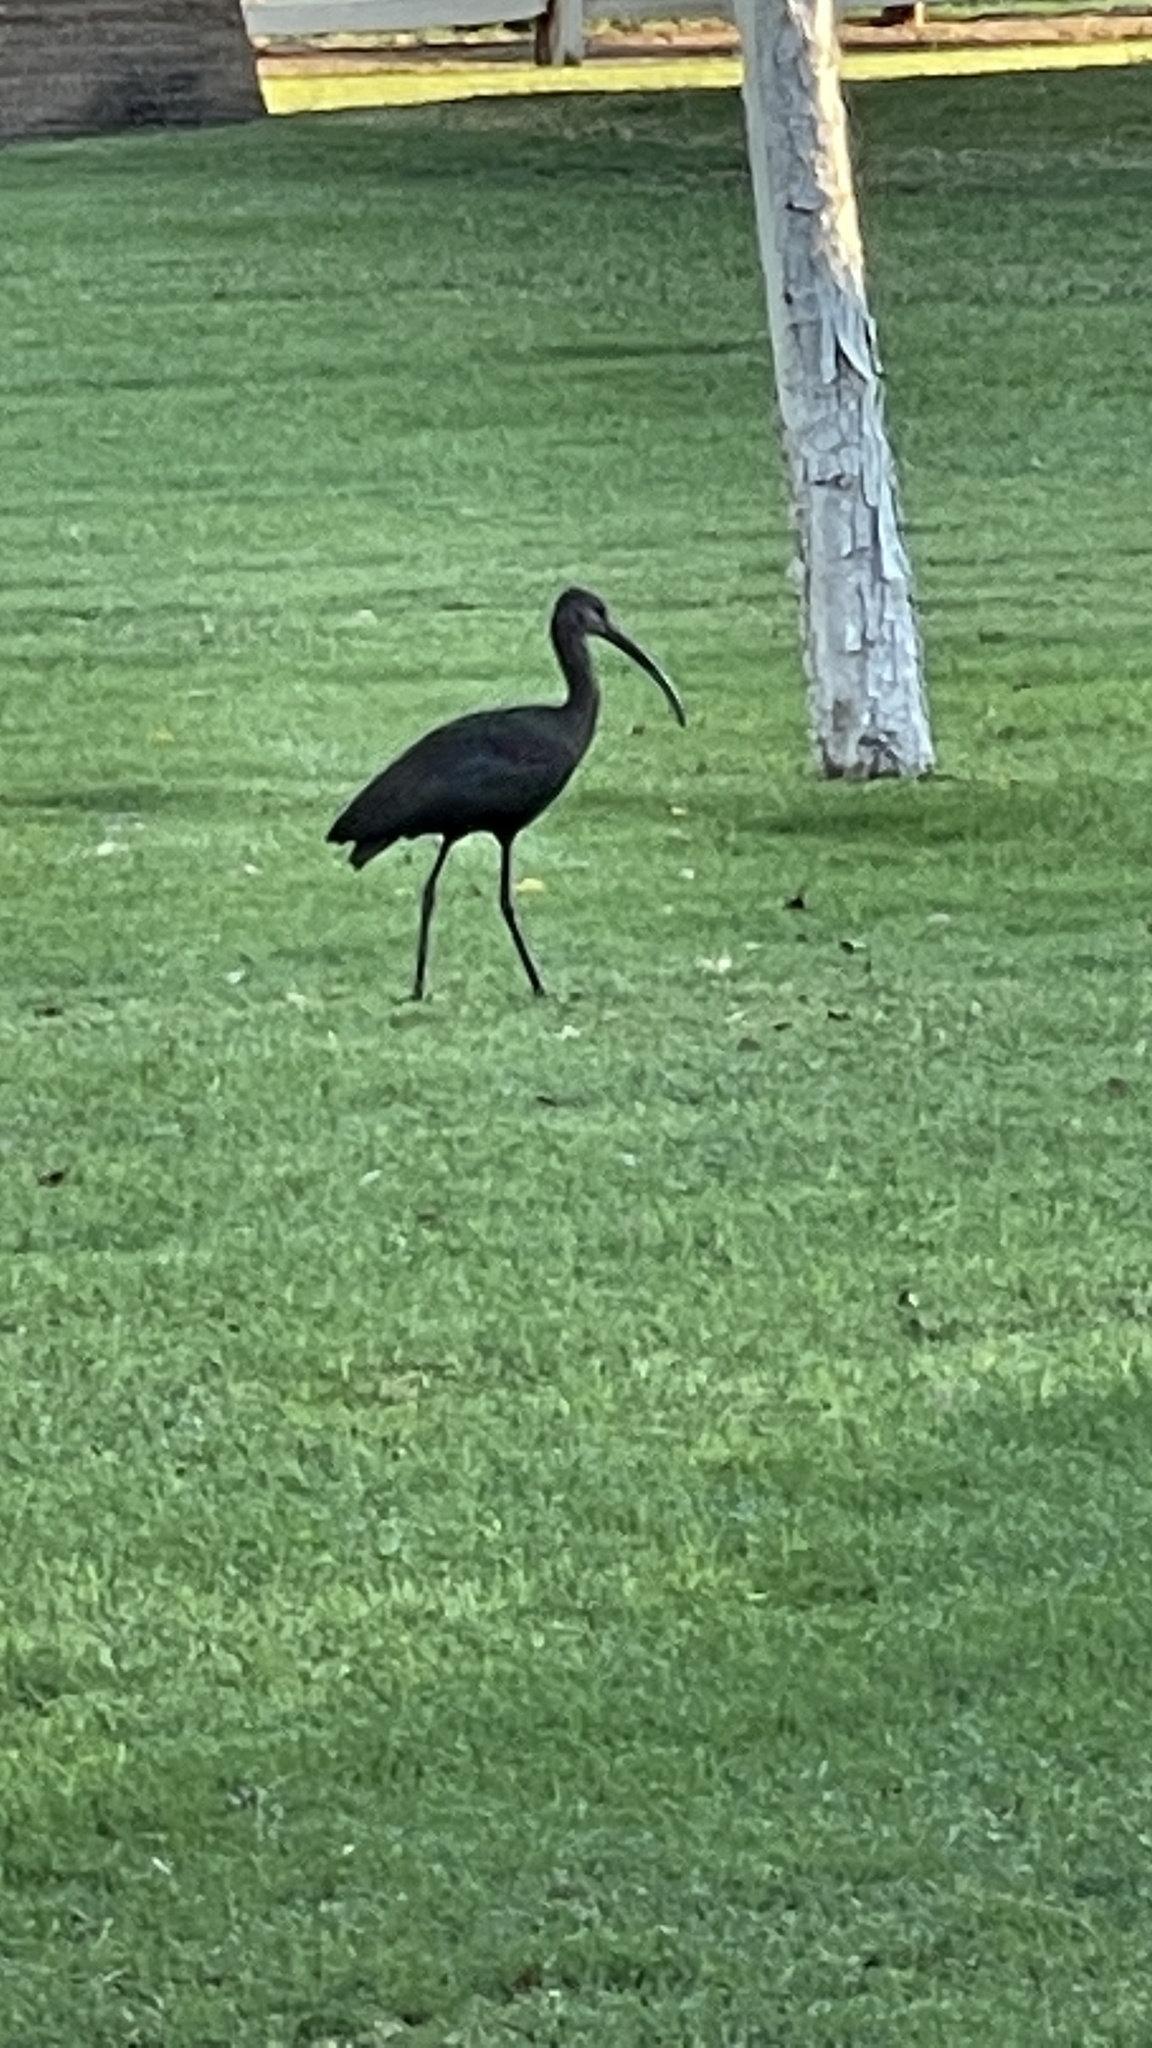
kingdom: Animalia
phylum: Chordata
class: Aves
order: Pelecaniformes
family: Threskiornithidae
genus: Plegadis
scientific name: Plegadis chihi
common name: White-faced ibis
